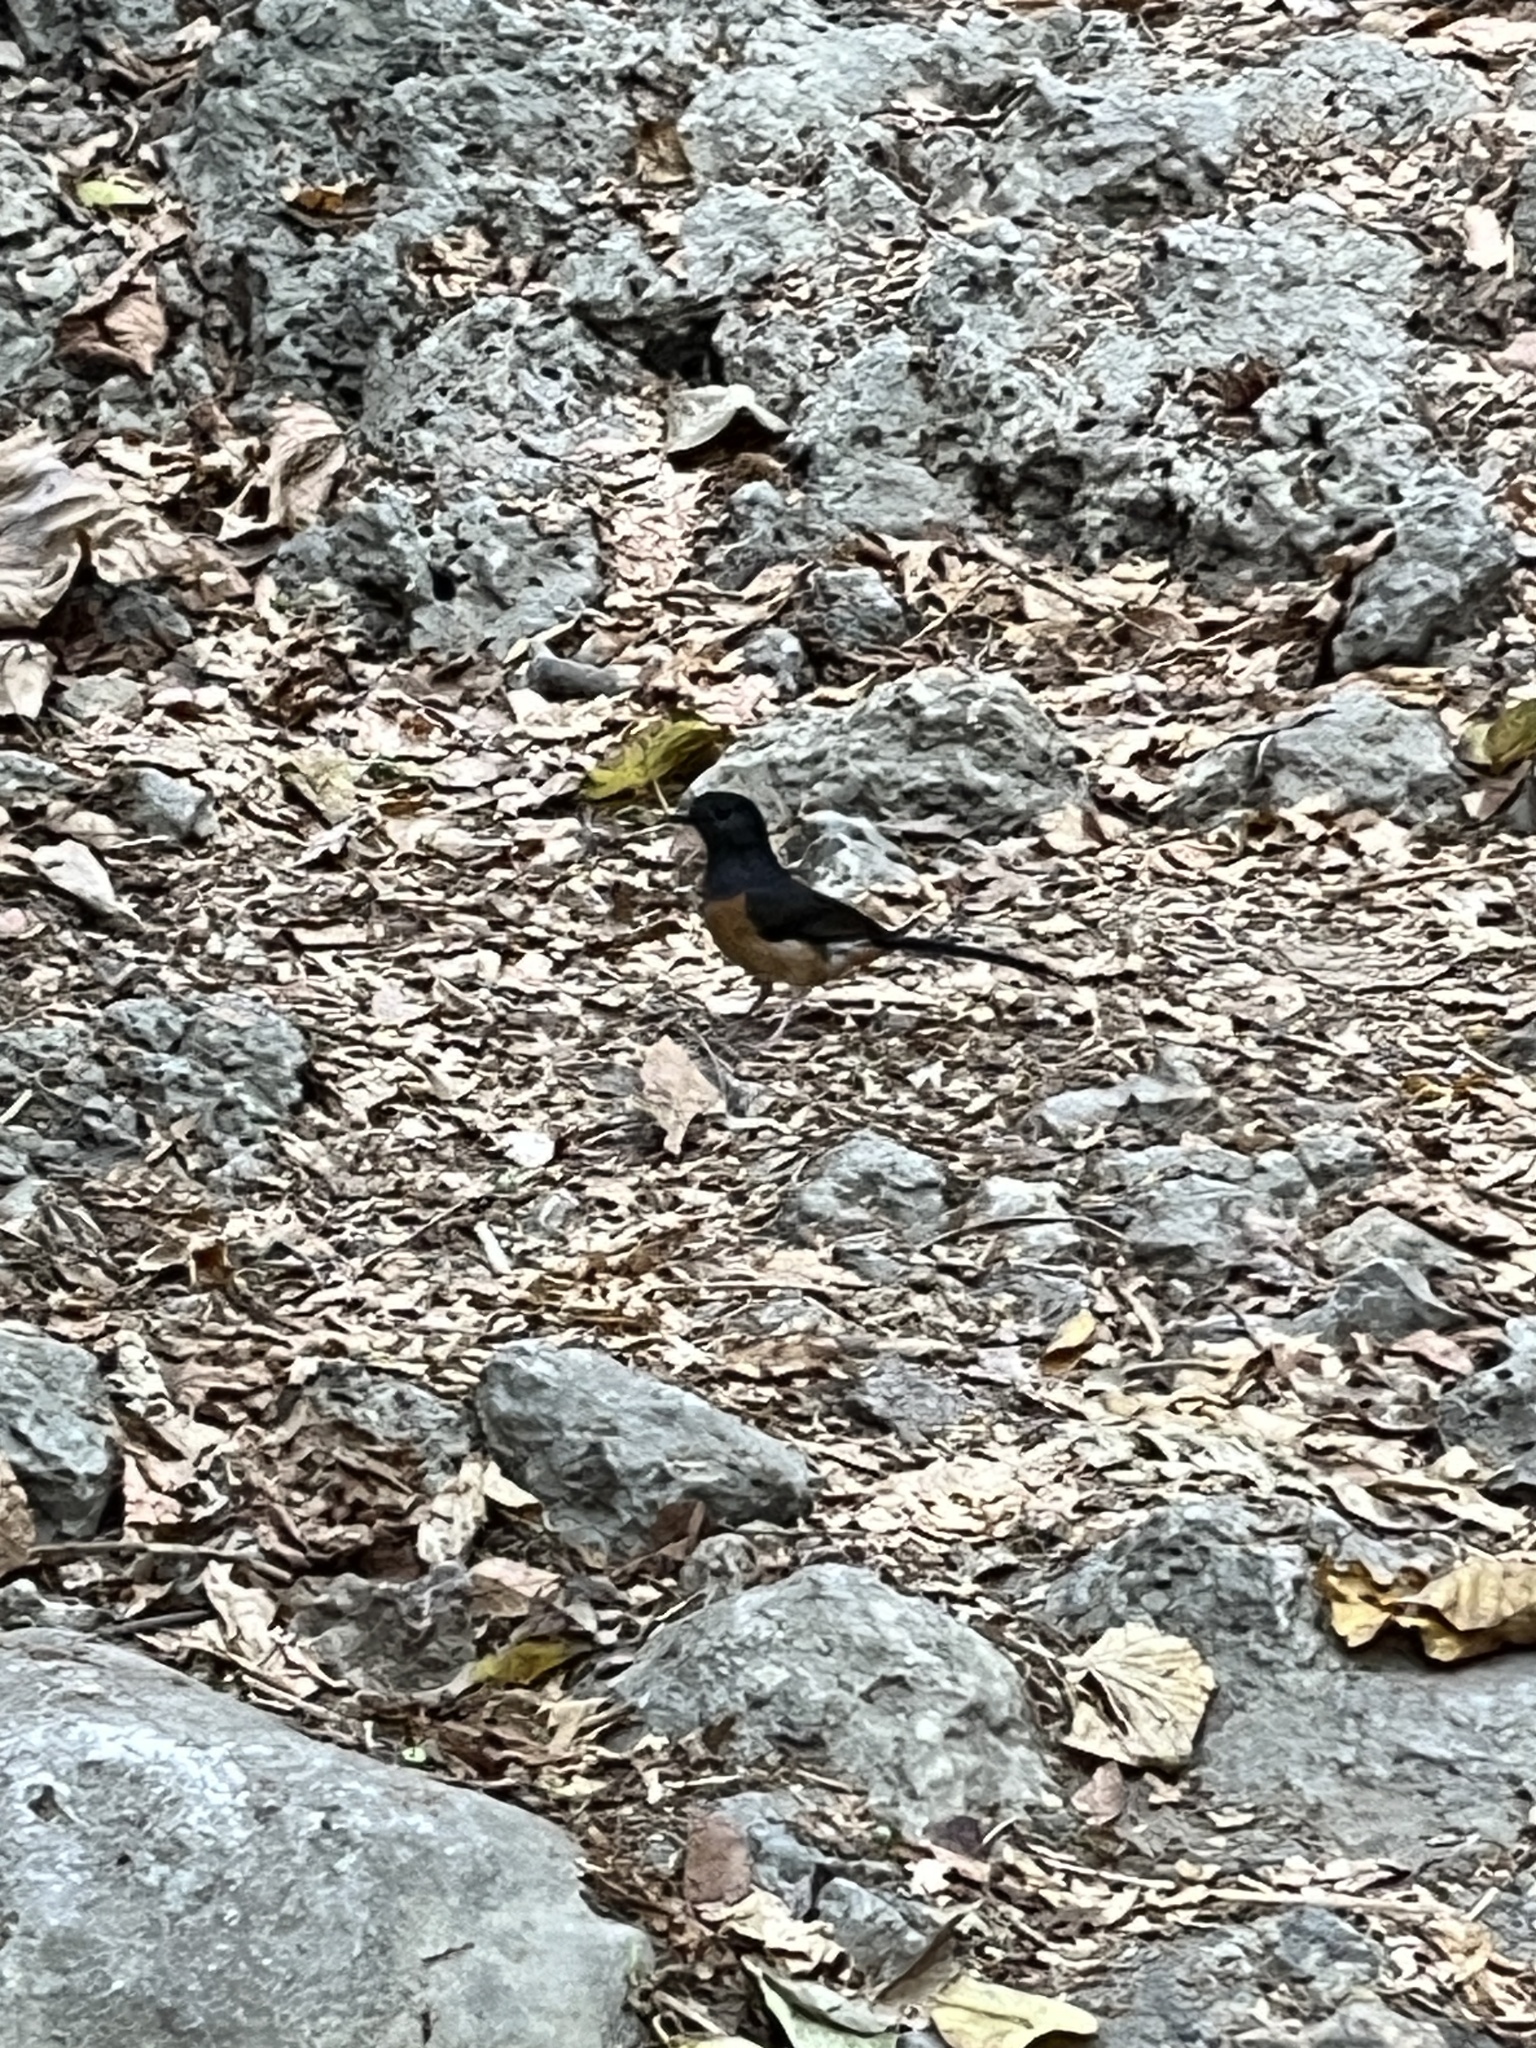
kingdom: Animalia
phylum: Chordata
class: Aves
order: Passeriformes
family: Muscicapidae
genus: Copsychus
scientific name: Copsychus malabaricus
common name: White-rumped shama
